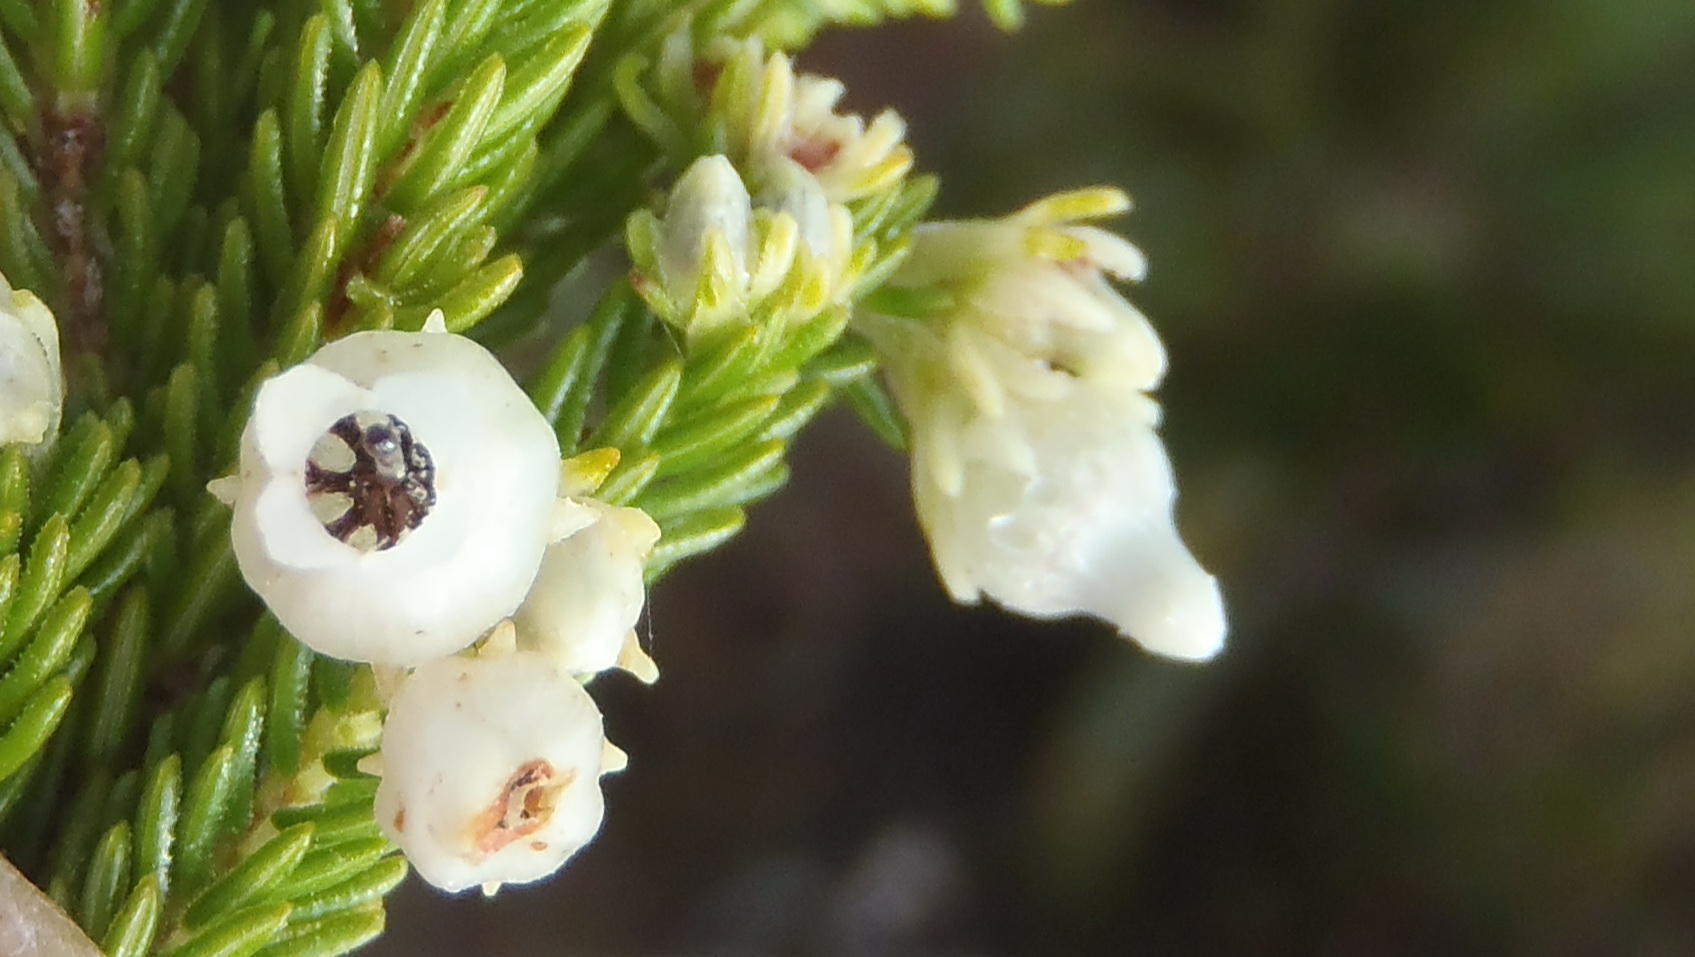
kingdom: Plantae
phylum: Tracheophyta
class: Magnoliopsida
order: Ericales
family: Ericaceae
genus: Erica
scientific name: Erica glomiflora
